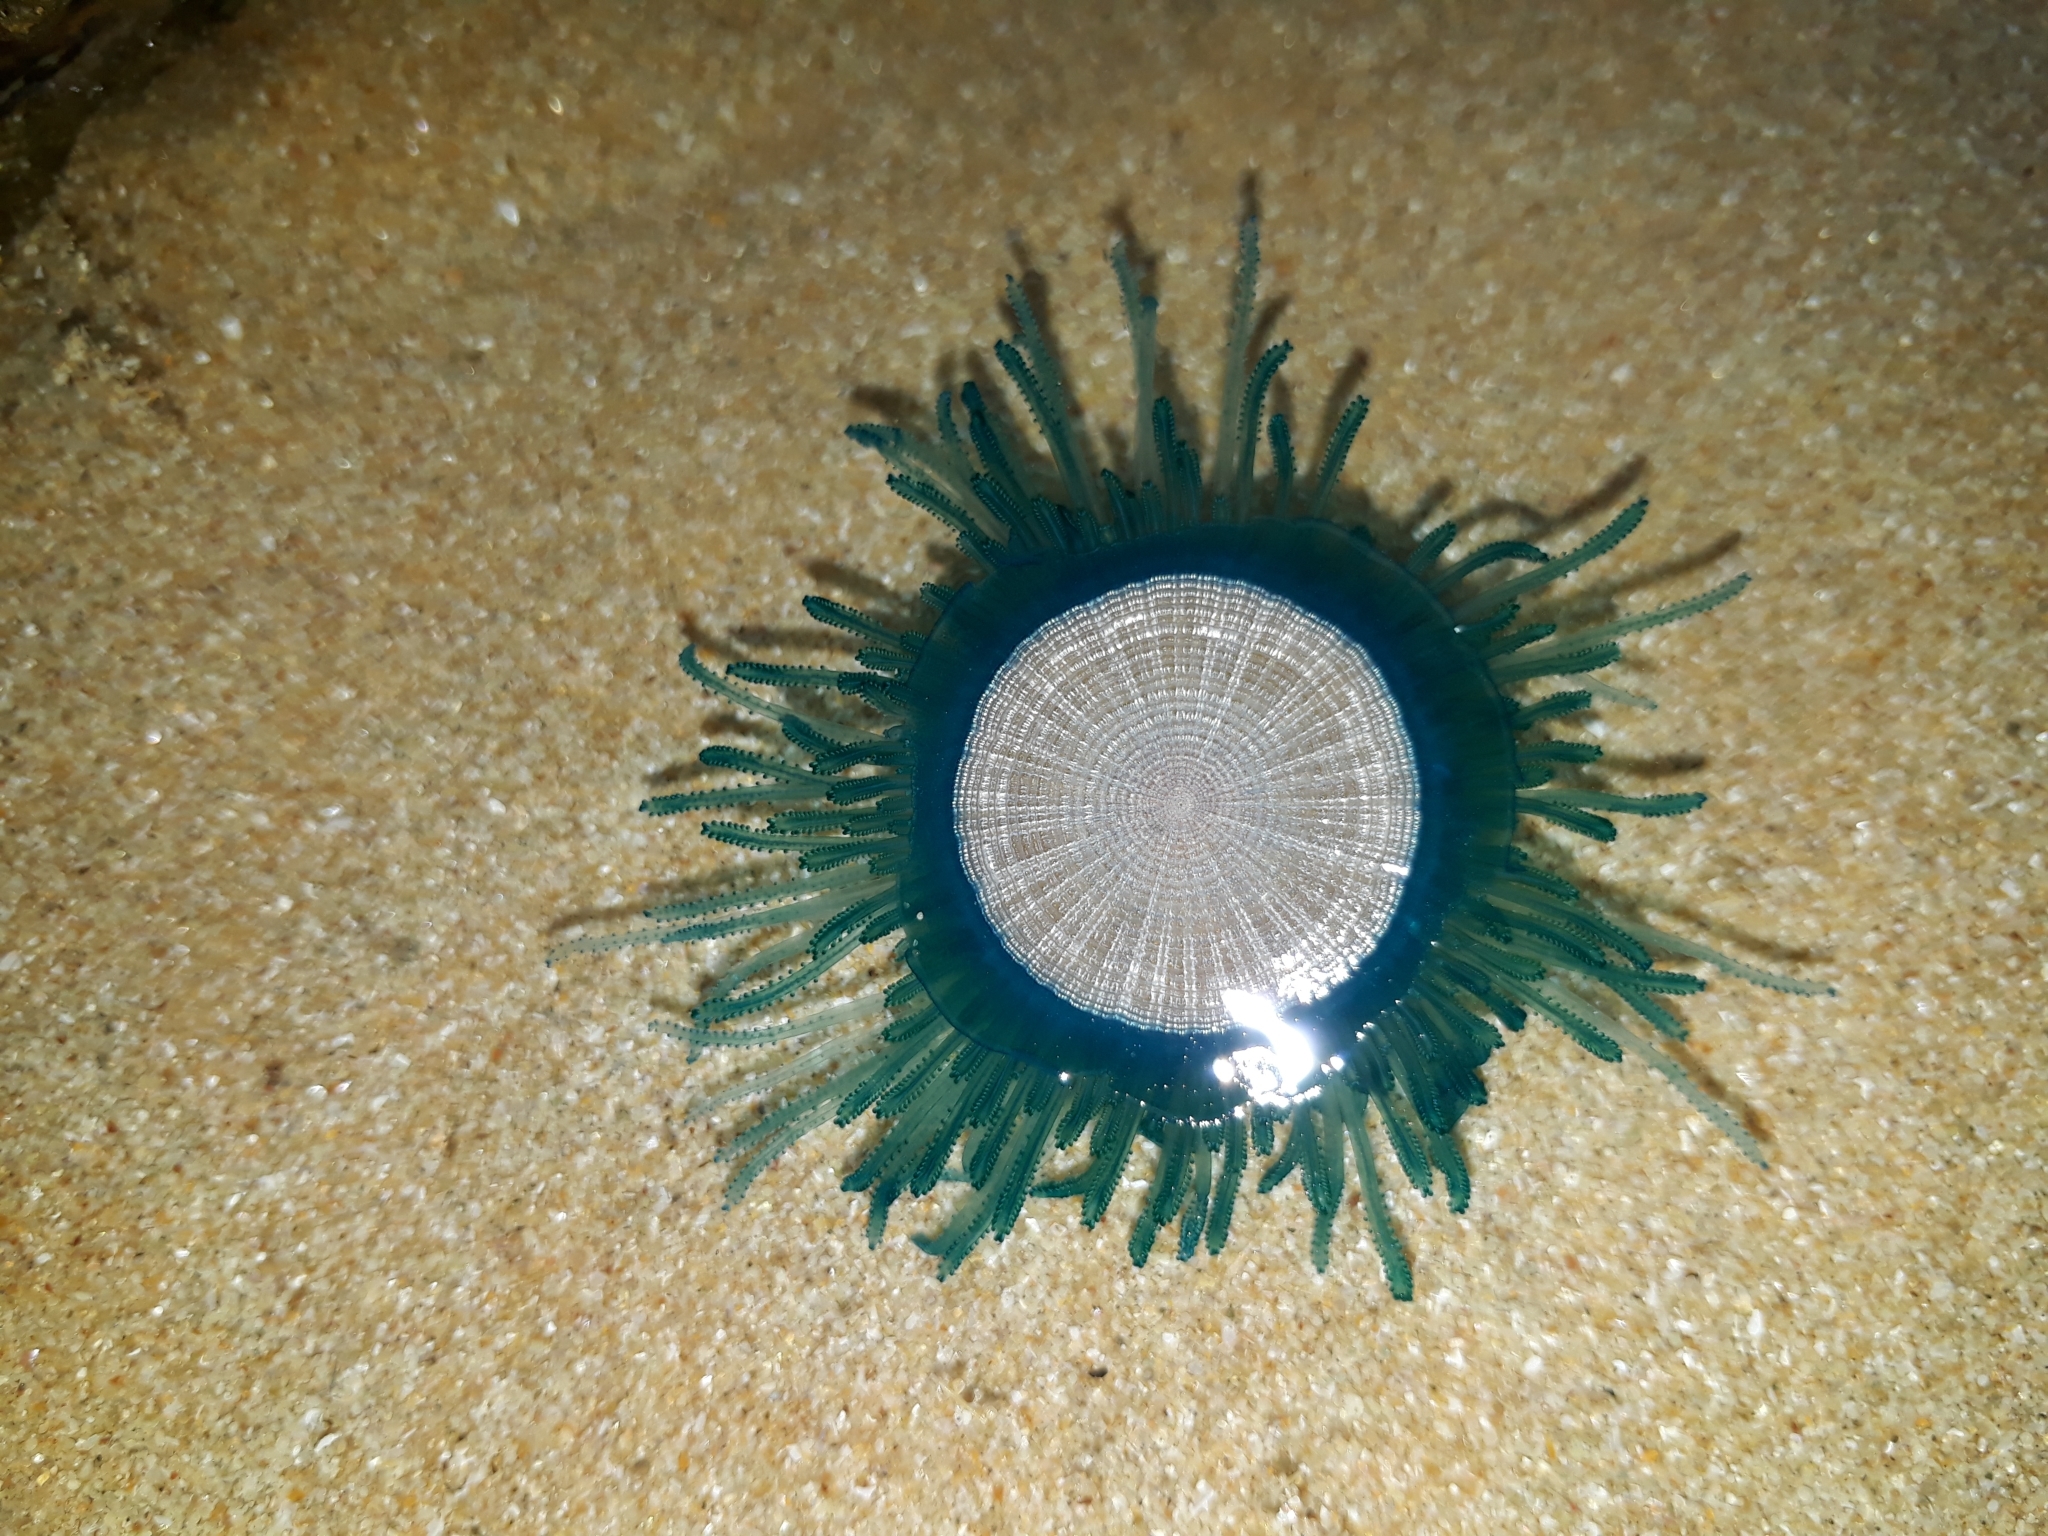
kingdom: Animalia
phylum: Cnidaria
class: Hydrozoa
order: Anthoathecata
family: Porpitidae
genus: Porpita
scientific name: Porpita porpita
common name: Blue button
